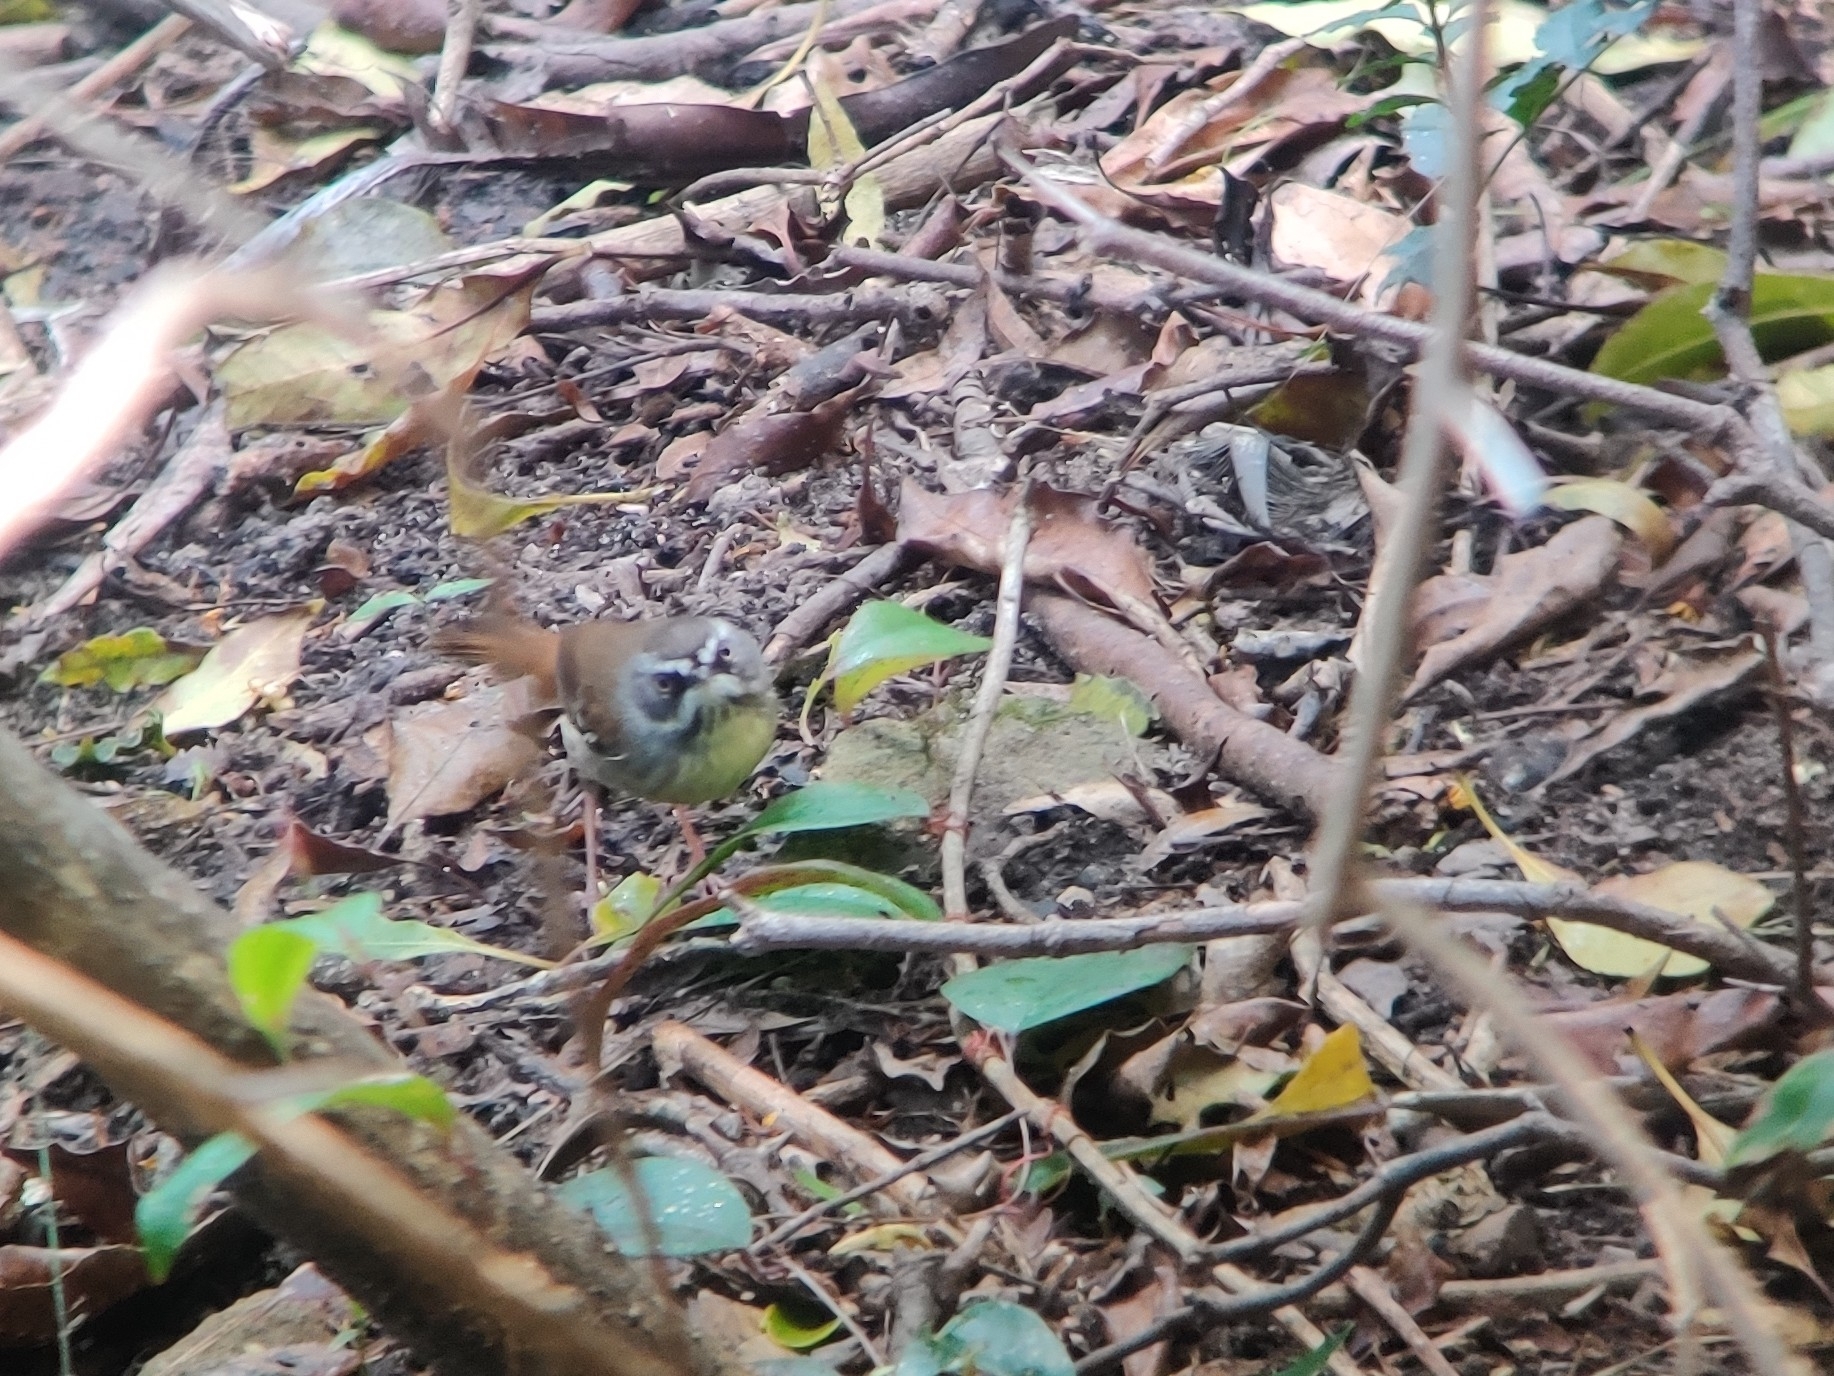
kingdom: Animalia
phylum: Chordata
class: Aves
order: Passeriformes
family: Acanthizidae
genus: Sericornis
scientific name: Sericornis frontalis
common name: White-browed scrubwren
